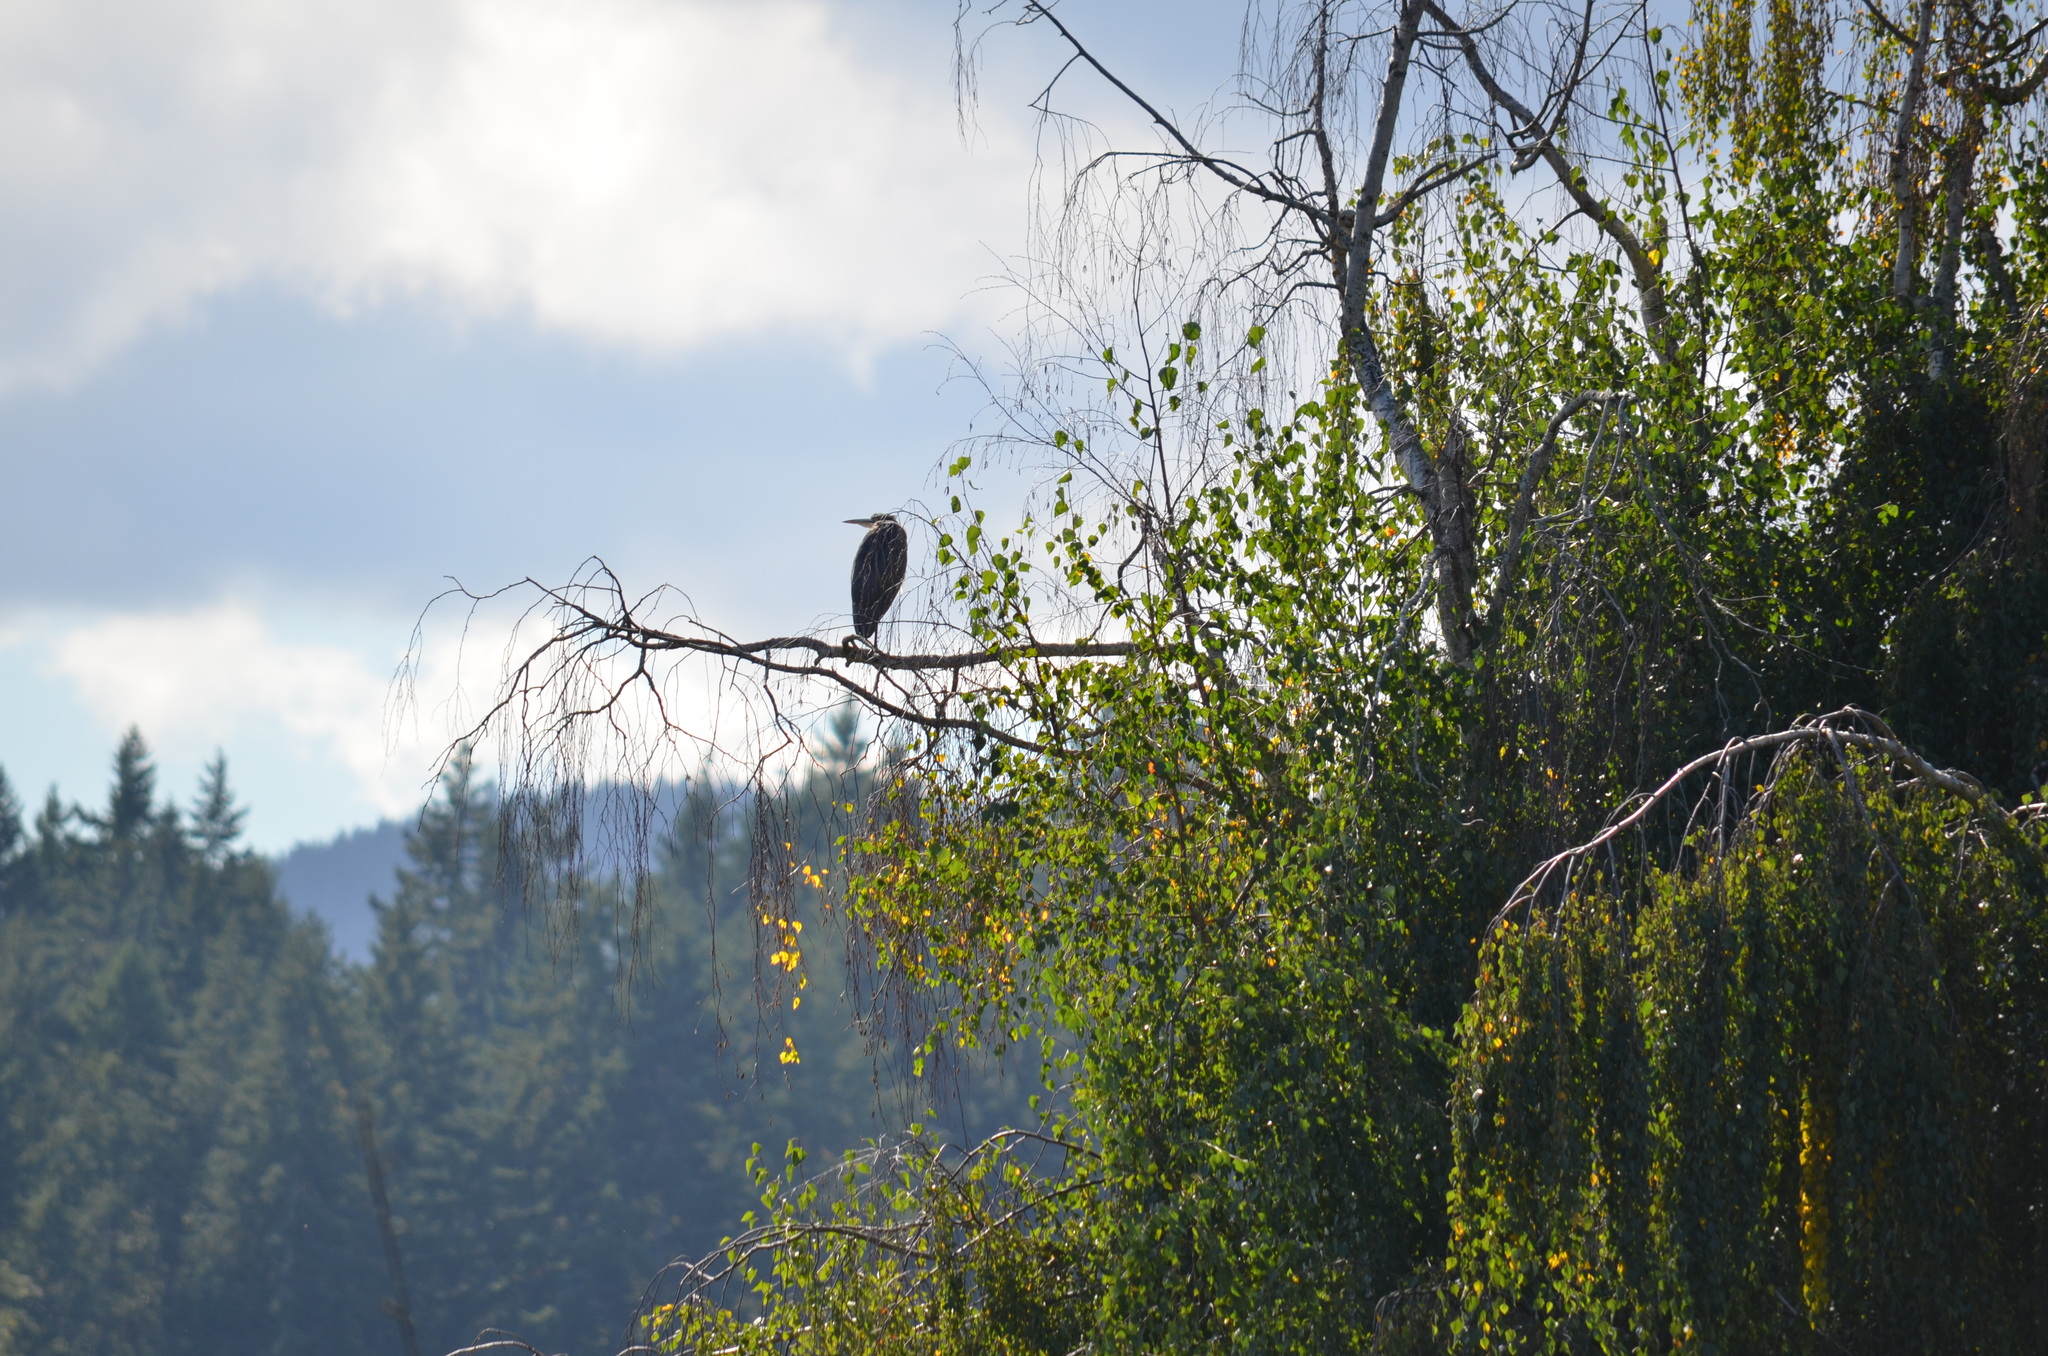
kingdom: Animalia
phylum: Chordata
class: Aves
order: Pelecaniformes
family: Ardeidae
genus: Ardea
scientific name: Ardea herodias
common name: Great blue heron
